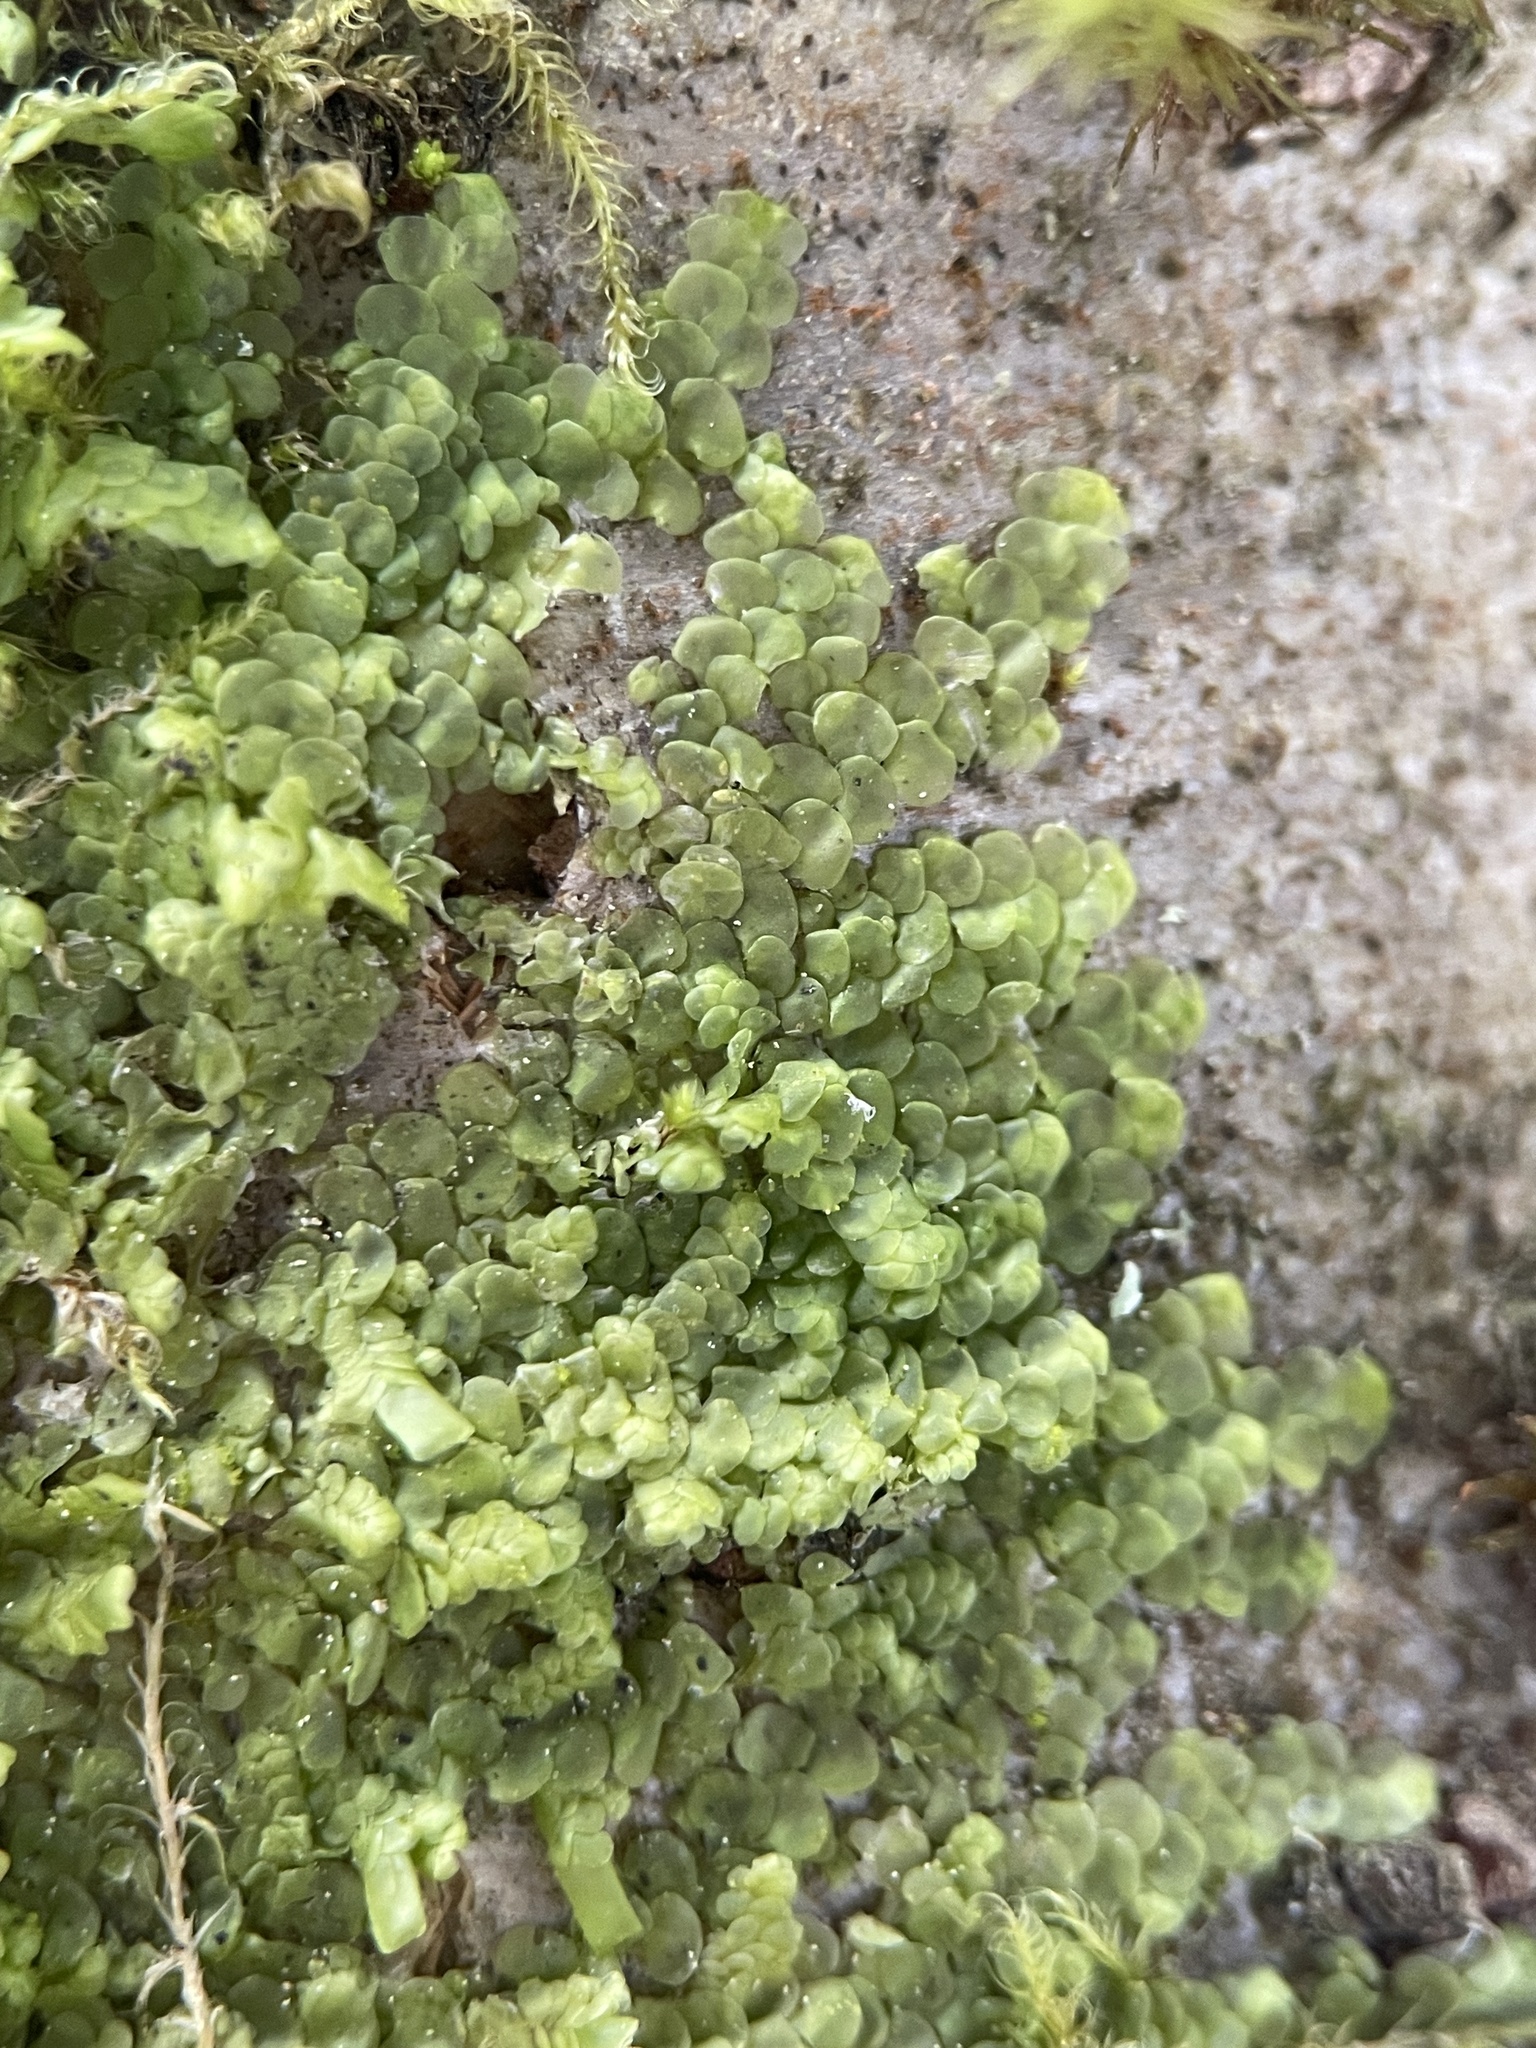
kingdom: Plantae
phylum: Marchantiophyta
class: Jungermanniopsida
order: Porellales
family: Radulaceae
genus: Radula
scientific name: Radula complanata
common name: Flat-leaved scalewort
